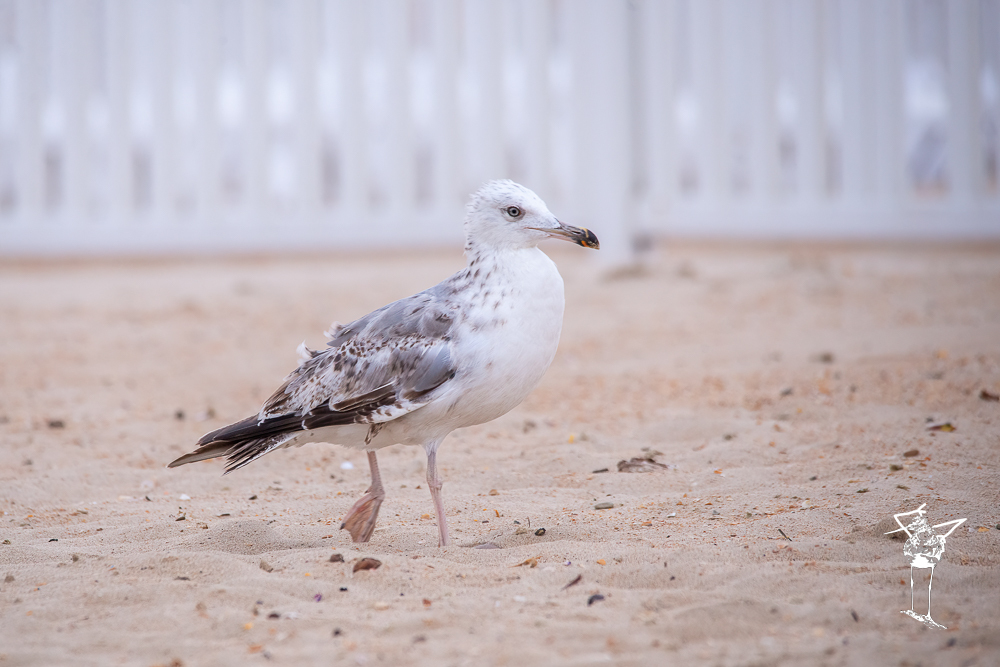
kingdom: Animalia
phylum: Chordata
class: Aves
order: Charadriiformes
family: Laridae
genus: Larus
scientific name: Larus michahellis
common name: Yellow-legged gull
